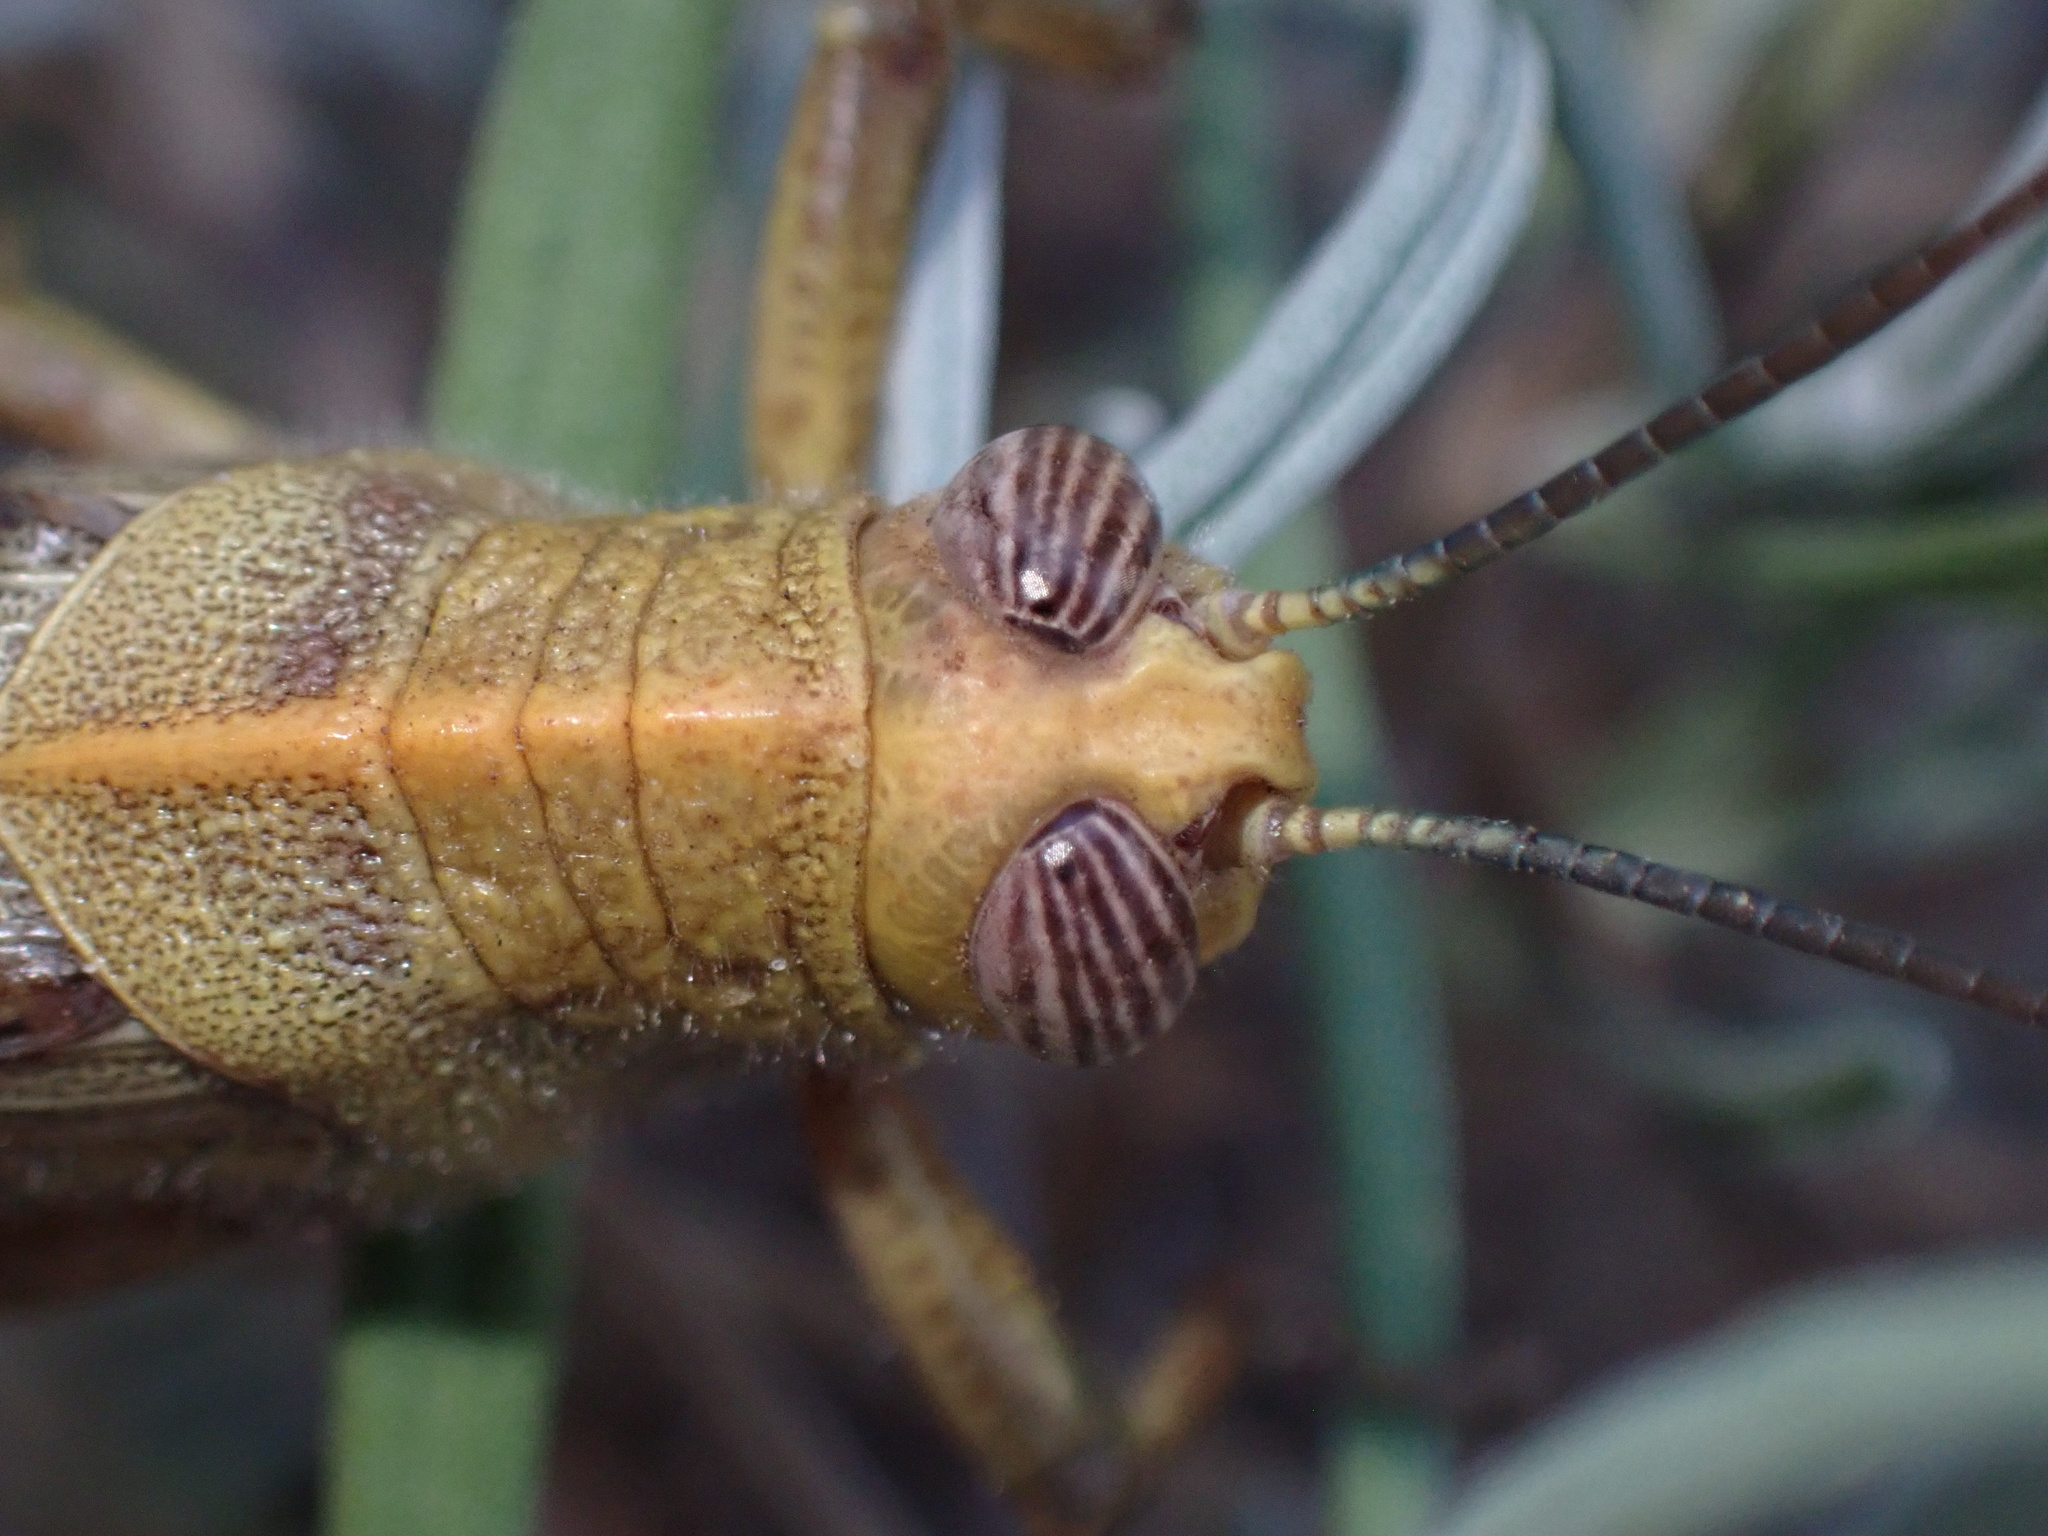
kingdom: Animalia
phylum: Arthropoda
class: Insecta
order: Orthoptera
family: Acrididae
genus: Anacridium
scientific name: Anacridium aegyptium
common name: Egyptian grasshopper
